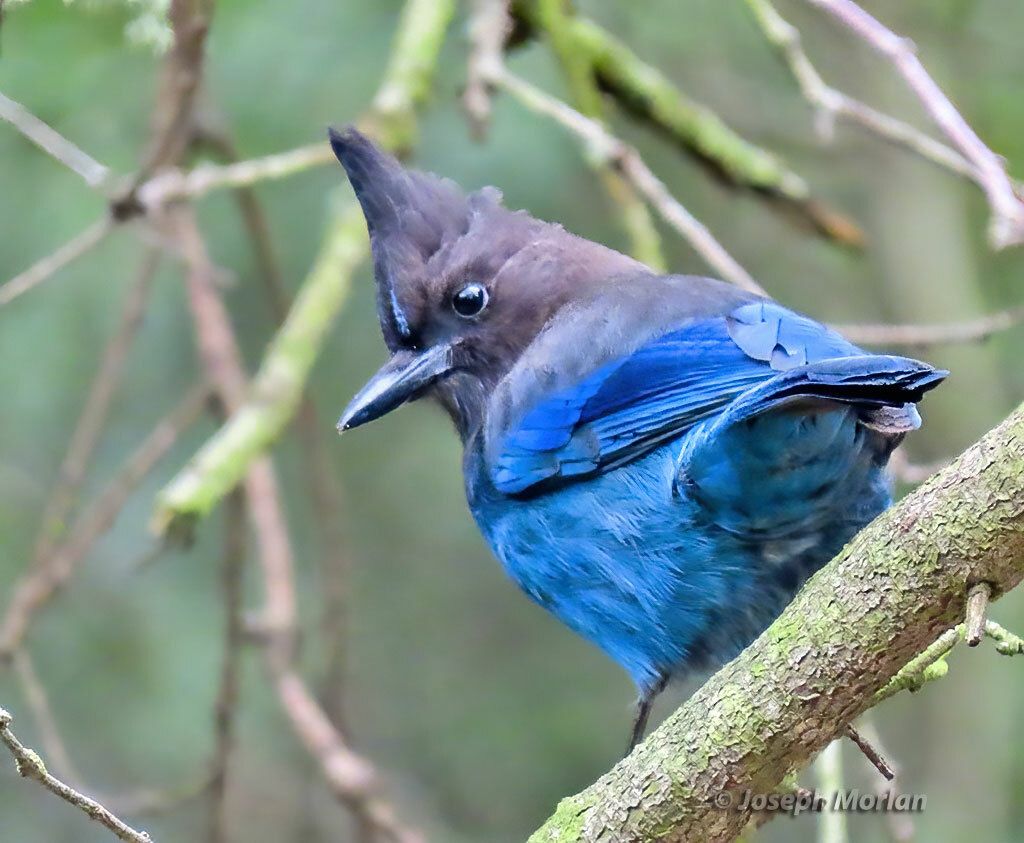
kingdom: Animalia
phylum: Chordata
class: Aves
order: Passeriformes
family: Corvidae
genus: Cyanocitta
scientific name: Cyanocitta stelleri
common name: Steller's jay
